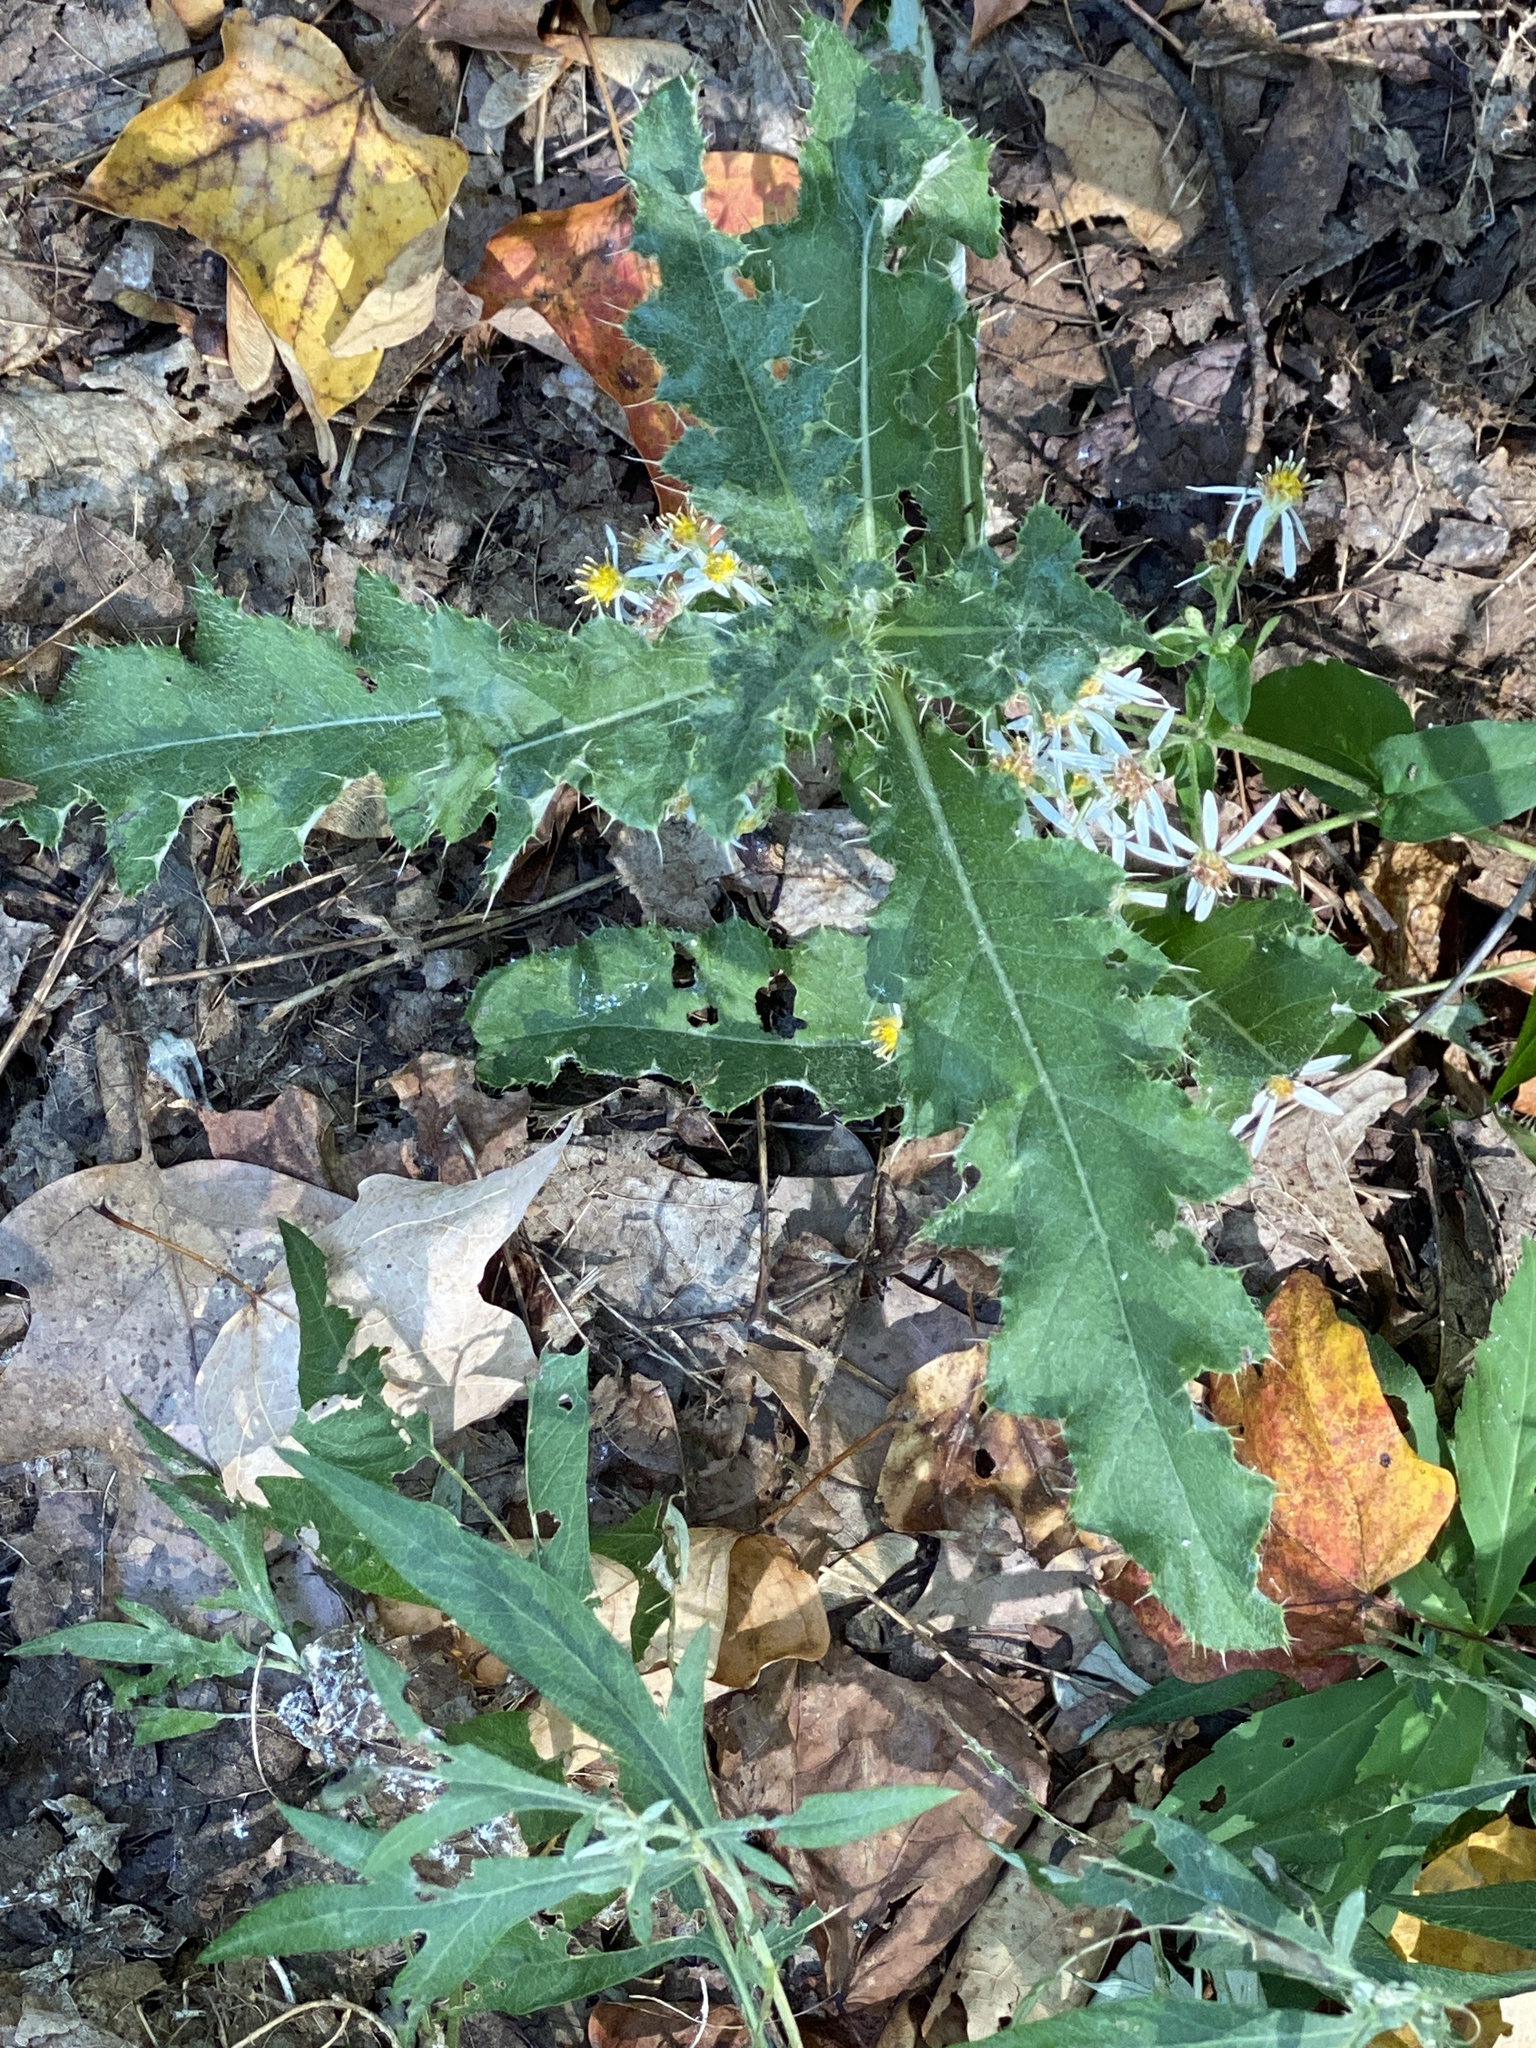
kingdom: Plantae
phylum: Tracheophyta
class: Magnoliopsida
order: Asterales
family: Asteraceae
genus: Cirsium
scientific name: Cirsium arvense
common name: Creeping thistle
